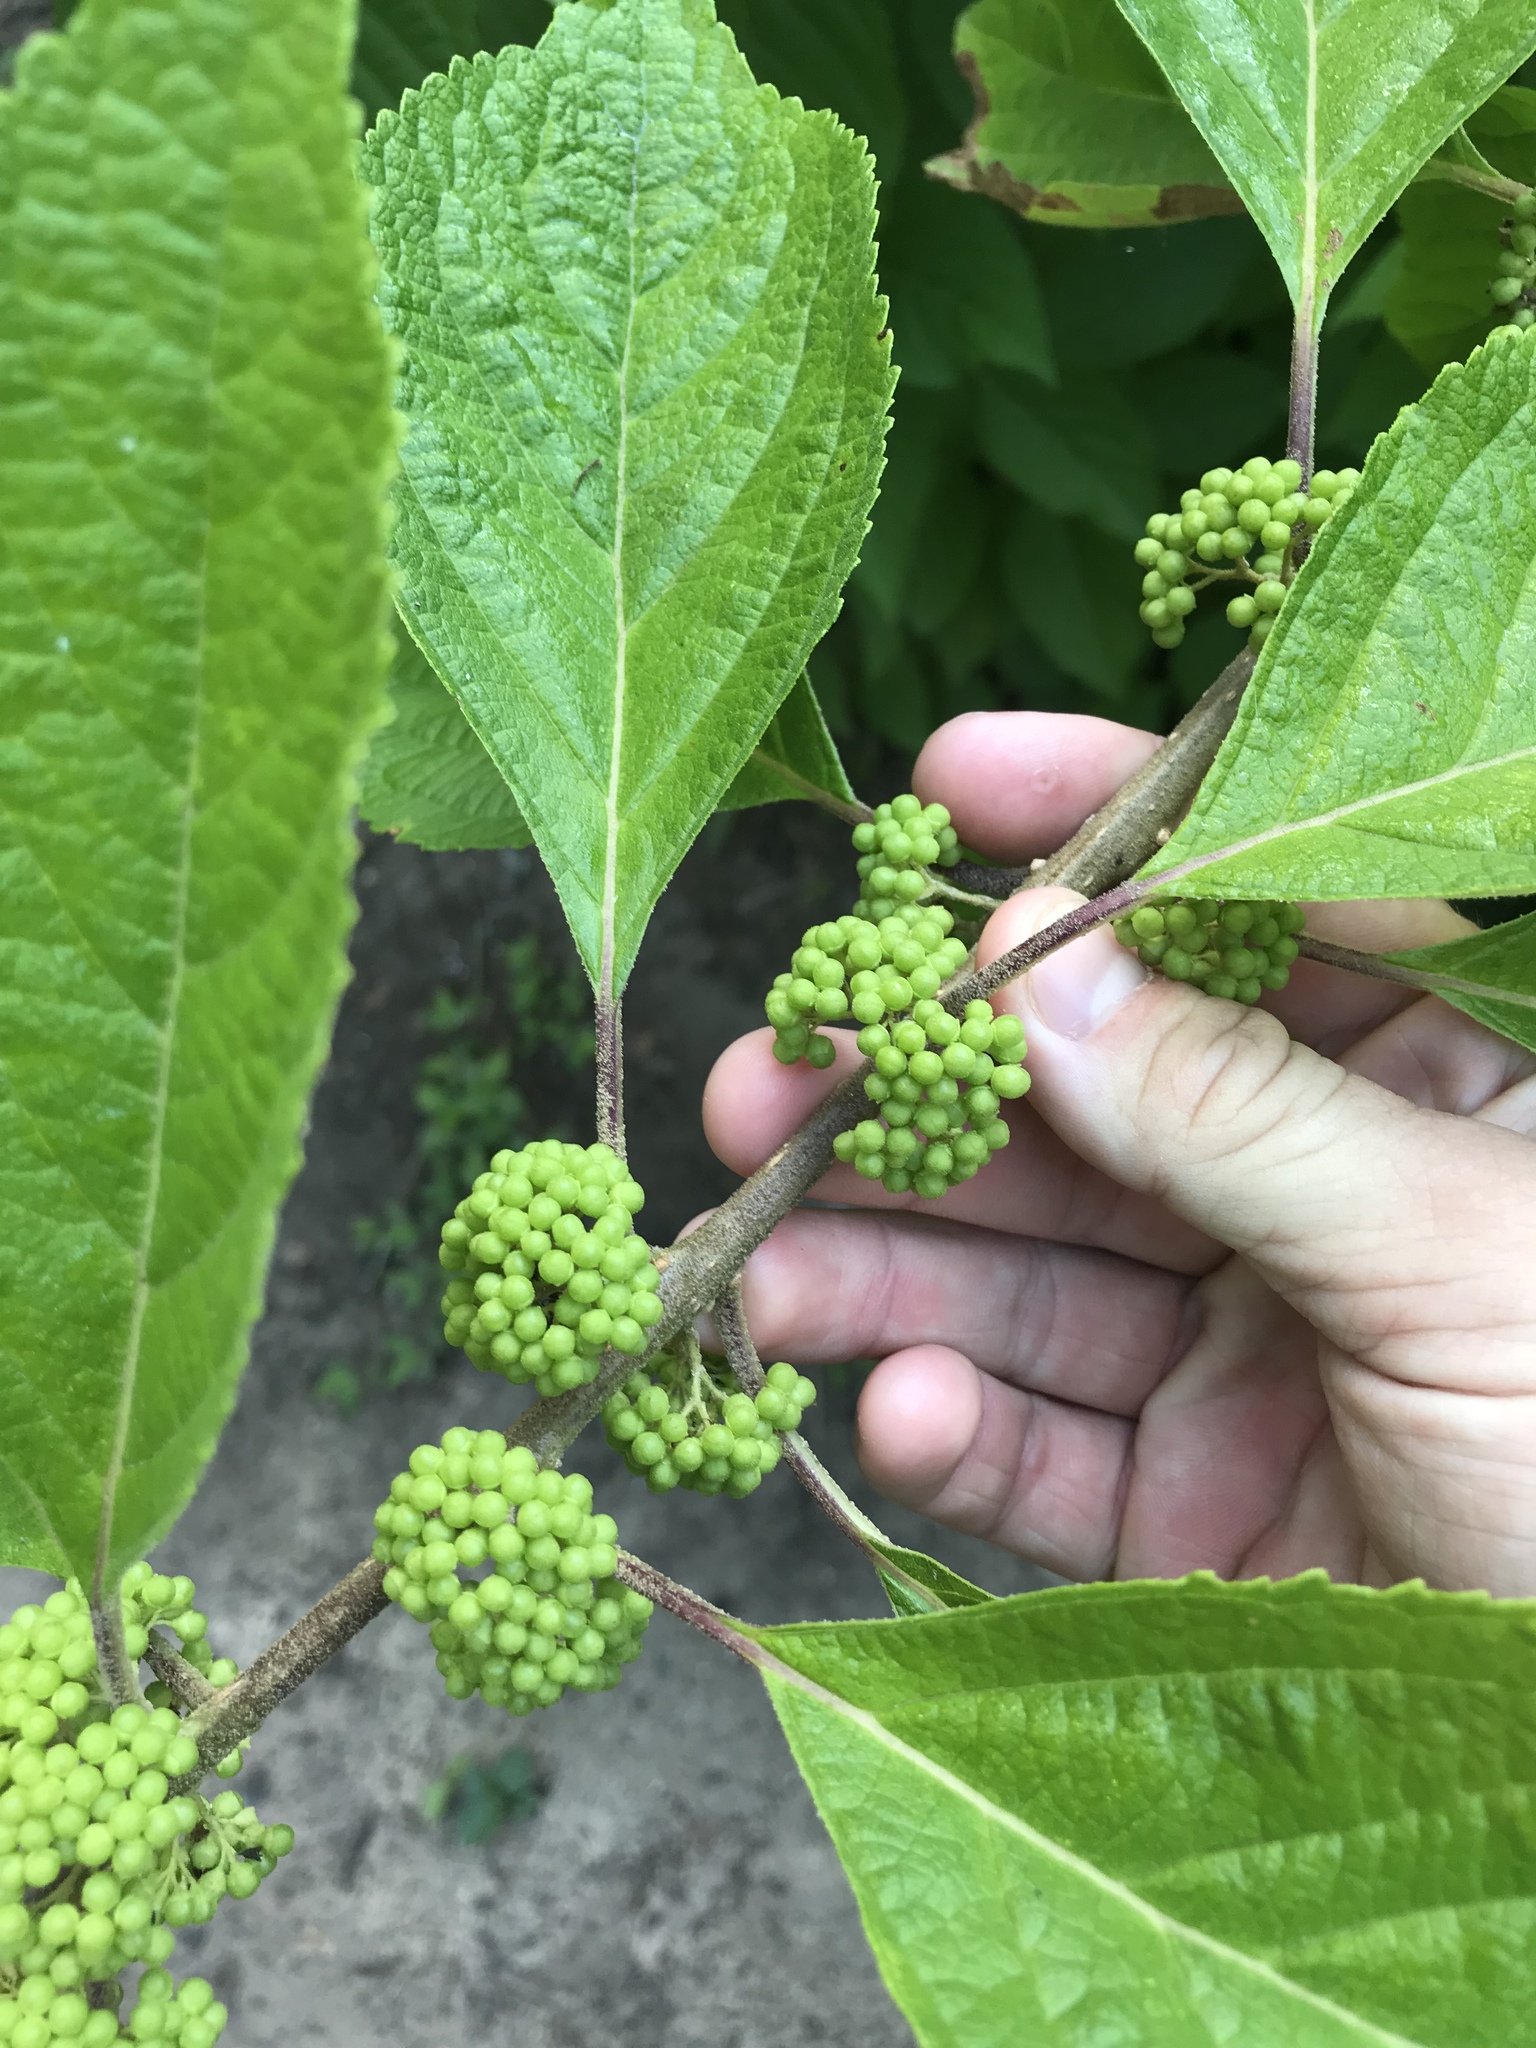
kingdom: Plantae
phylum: Tracheophyta
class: Magnoliopsida
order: Lamiales
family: Lamiaceae
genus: Callicarpa
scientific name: Callicarpa americana
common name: American beautyberry
